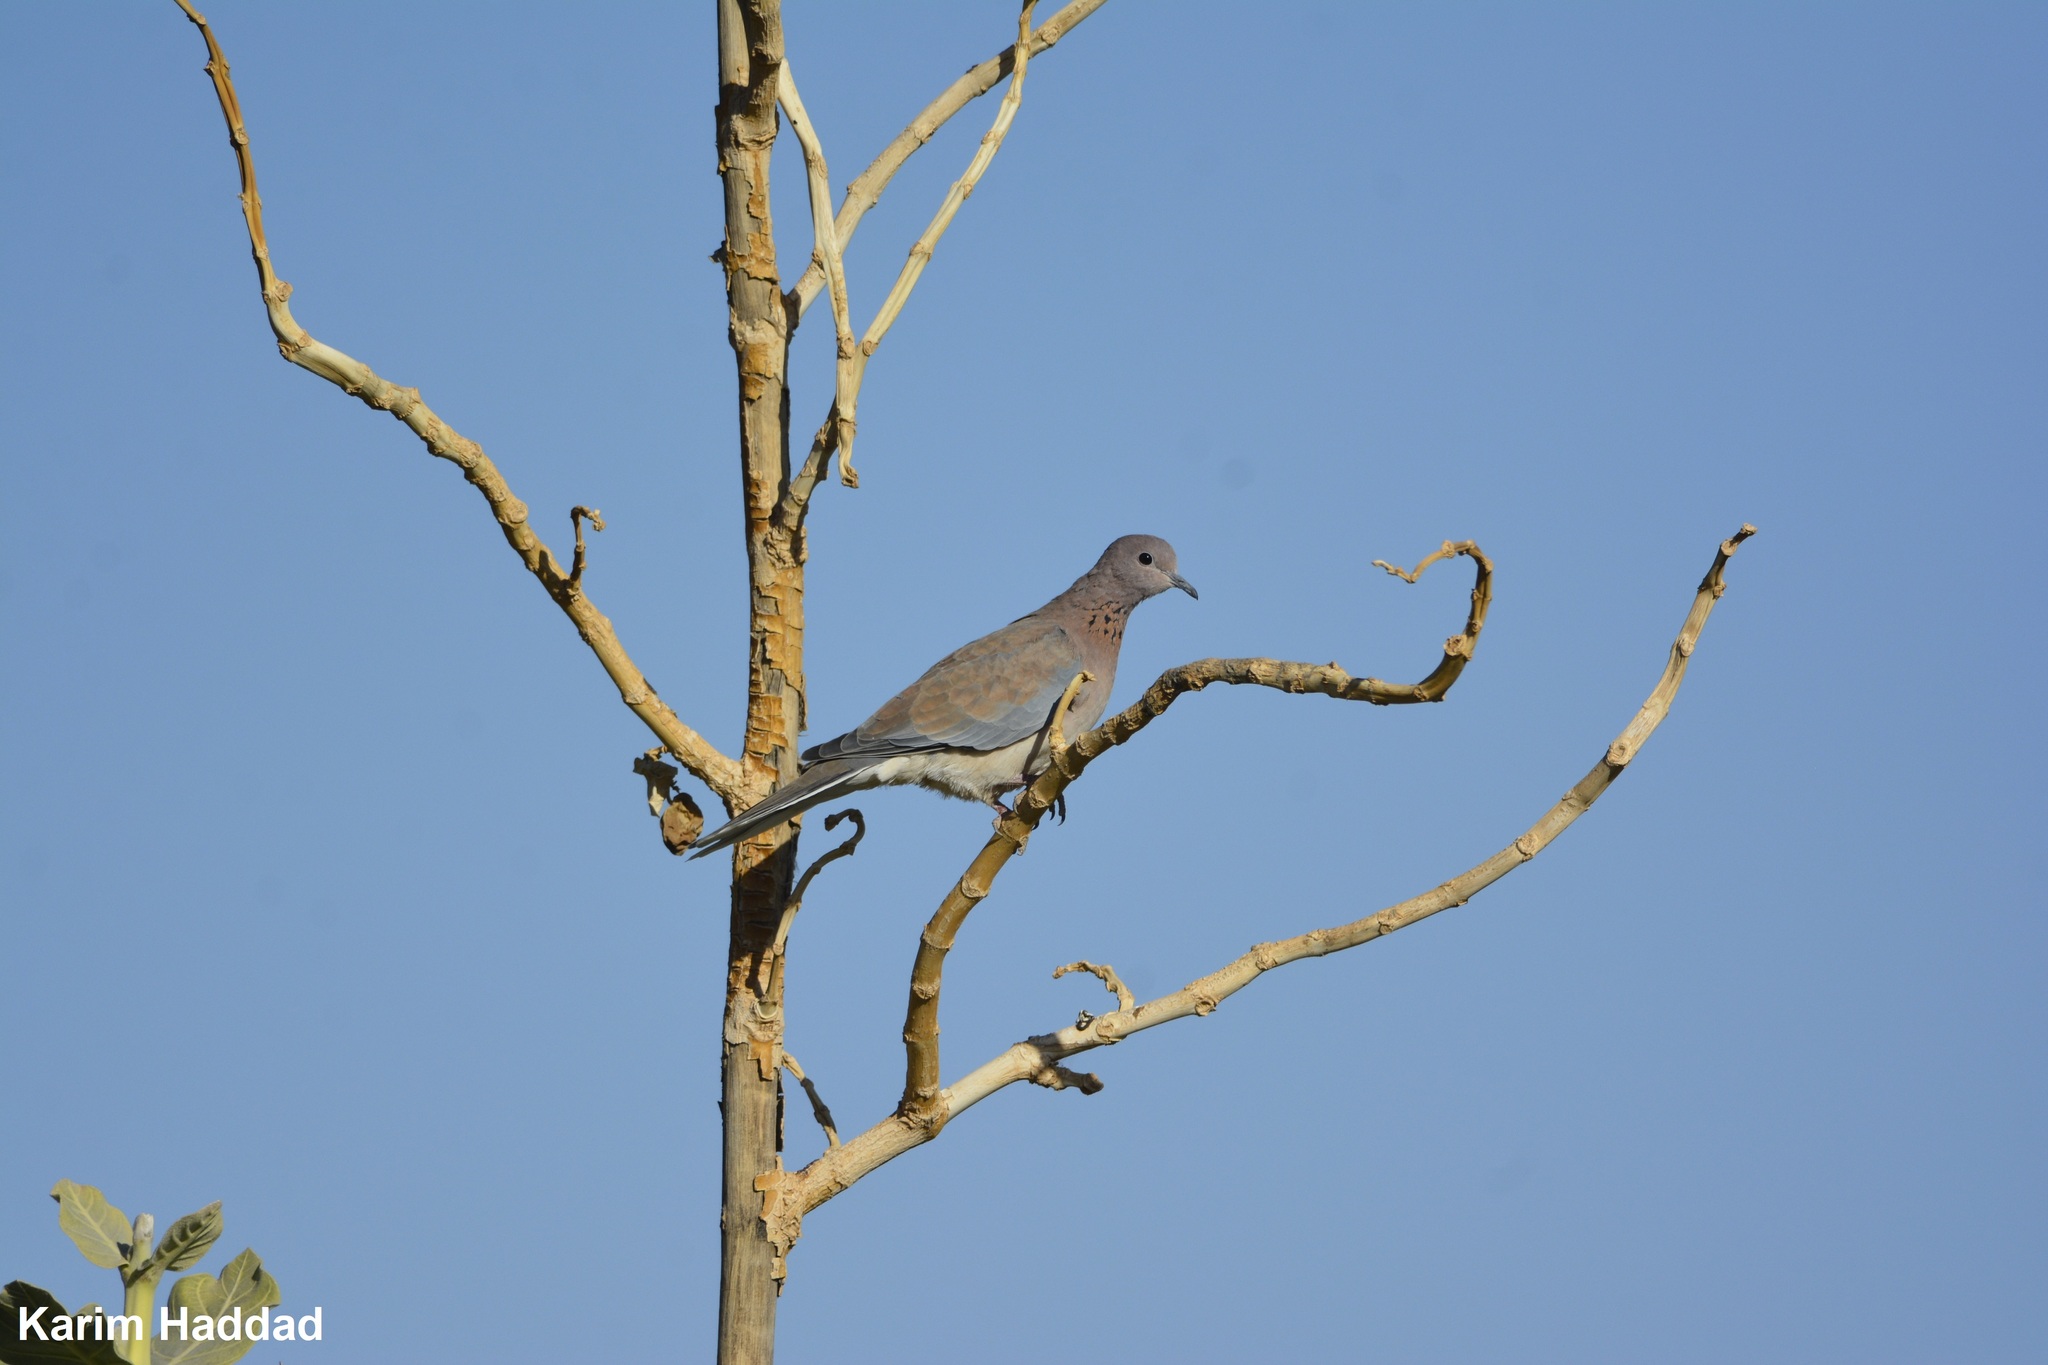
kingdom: Animalia
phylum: Chordata
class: Aves
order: Columbiformes
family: Columbidae
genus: Spilopelia
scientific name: Spilopelia senegalensis
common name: Laughing dove
